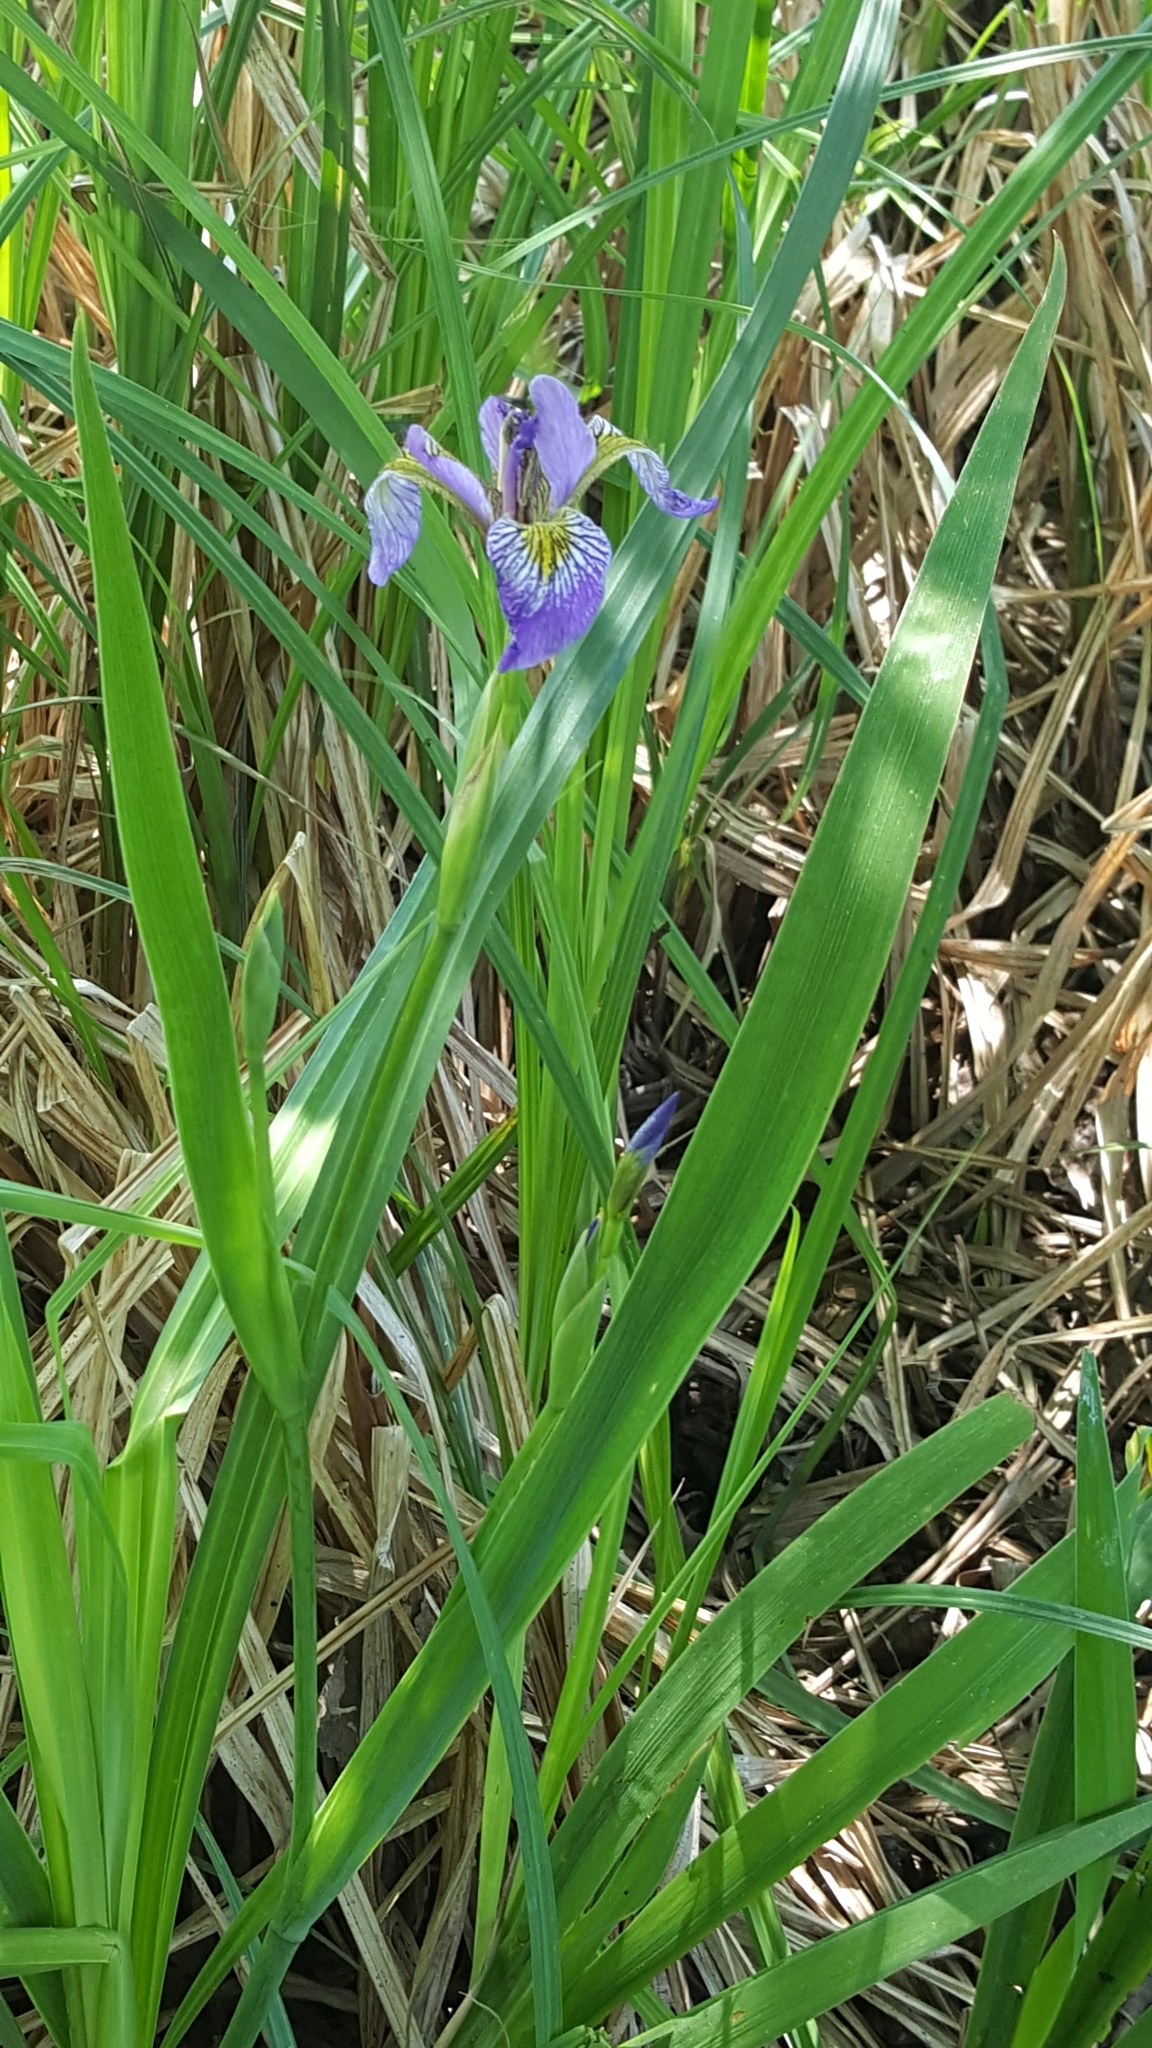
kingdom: Plantae
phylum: Tracheophyta
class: Liliopsida
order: Asparagales
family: Iridaceae
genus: Iris
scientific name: Iris versicolor
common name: Purple iris
